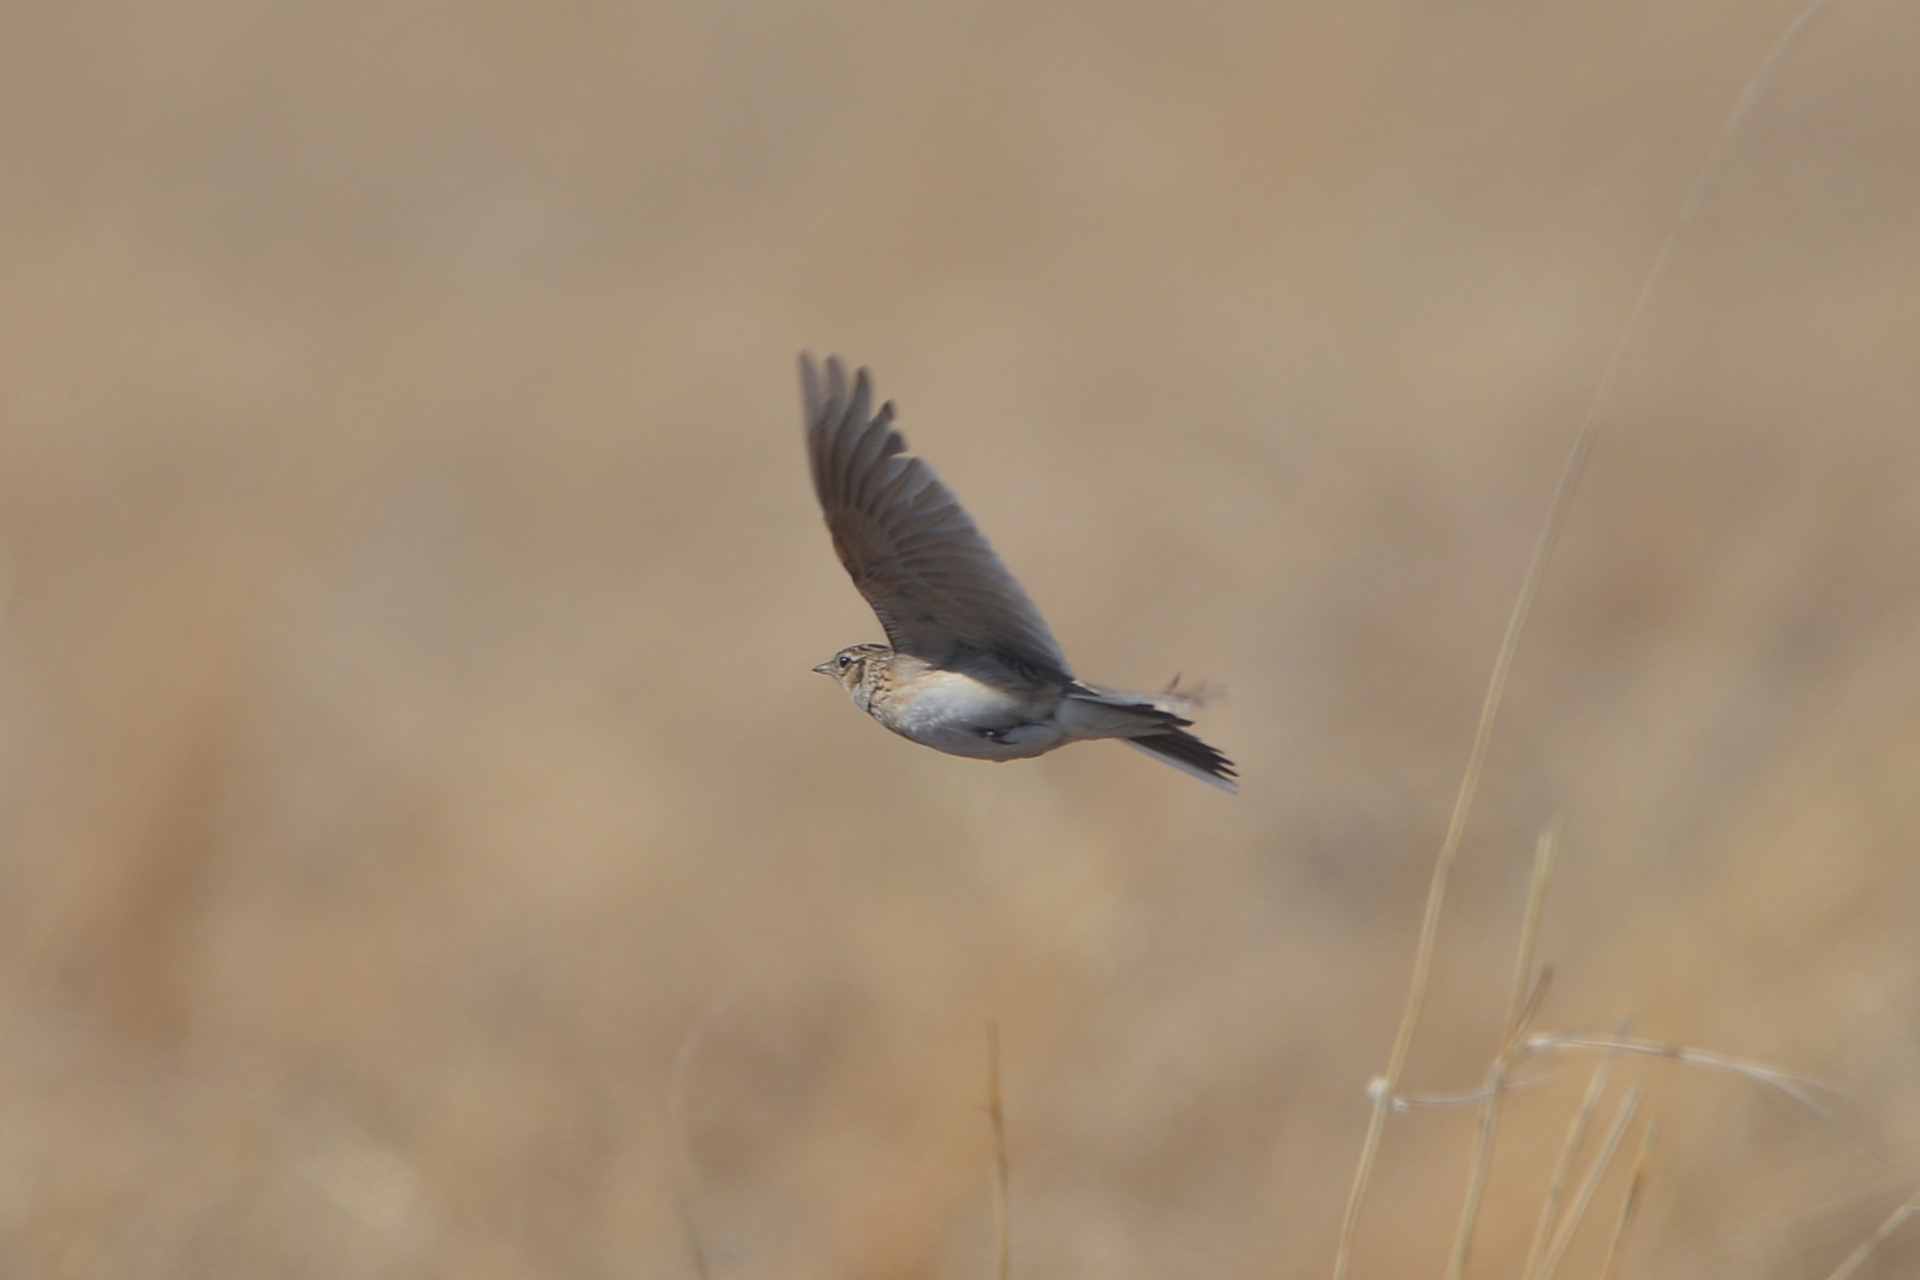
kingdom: Animalia
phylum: Chordata
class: Aves
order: Passeriformes
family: Alaudidae
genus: Alauda
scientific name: Alauda arvensis
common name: Eurasian skylark
